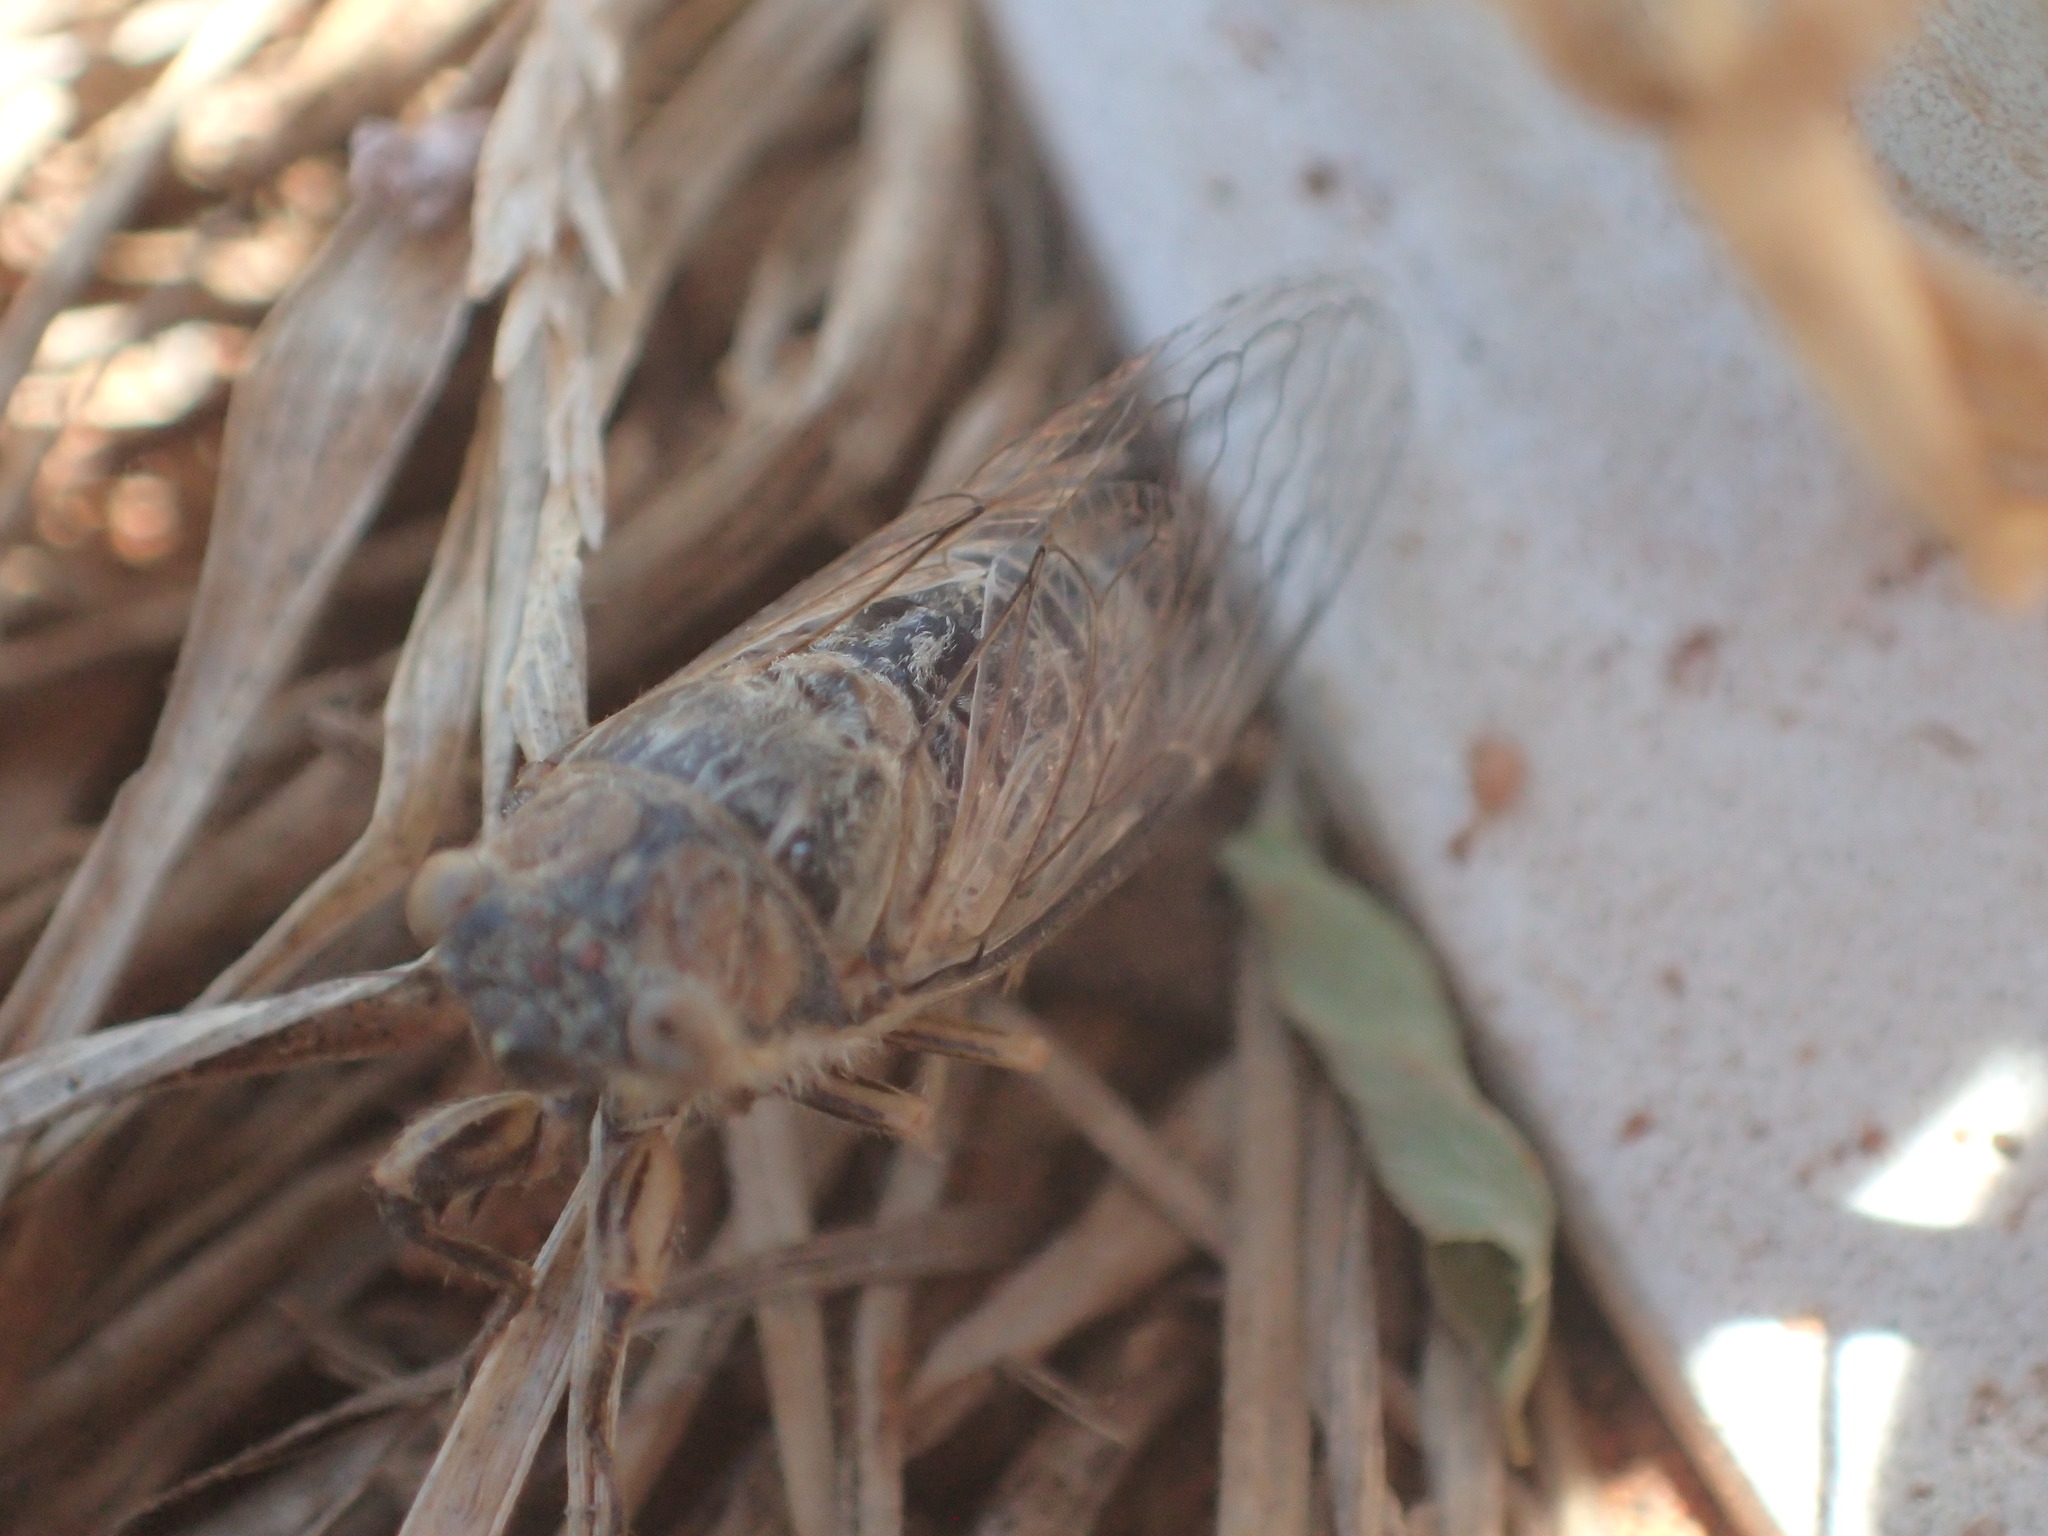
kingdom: Animalia
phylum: Arthropoda
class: Insecta
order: Hemiptera
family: Cicadidae
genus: Myopsalta
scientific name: Myopsalta xerograsidia
